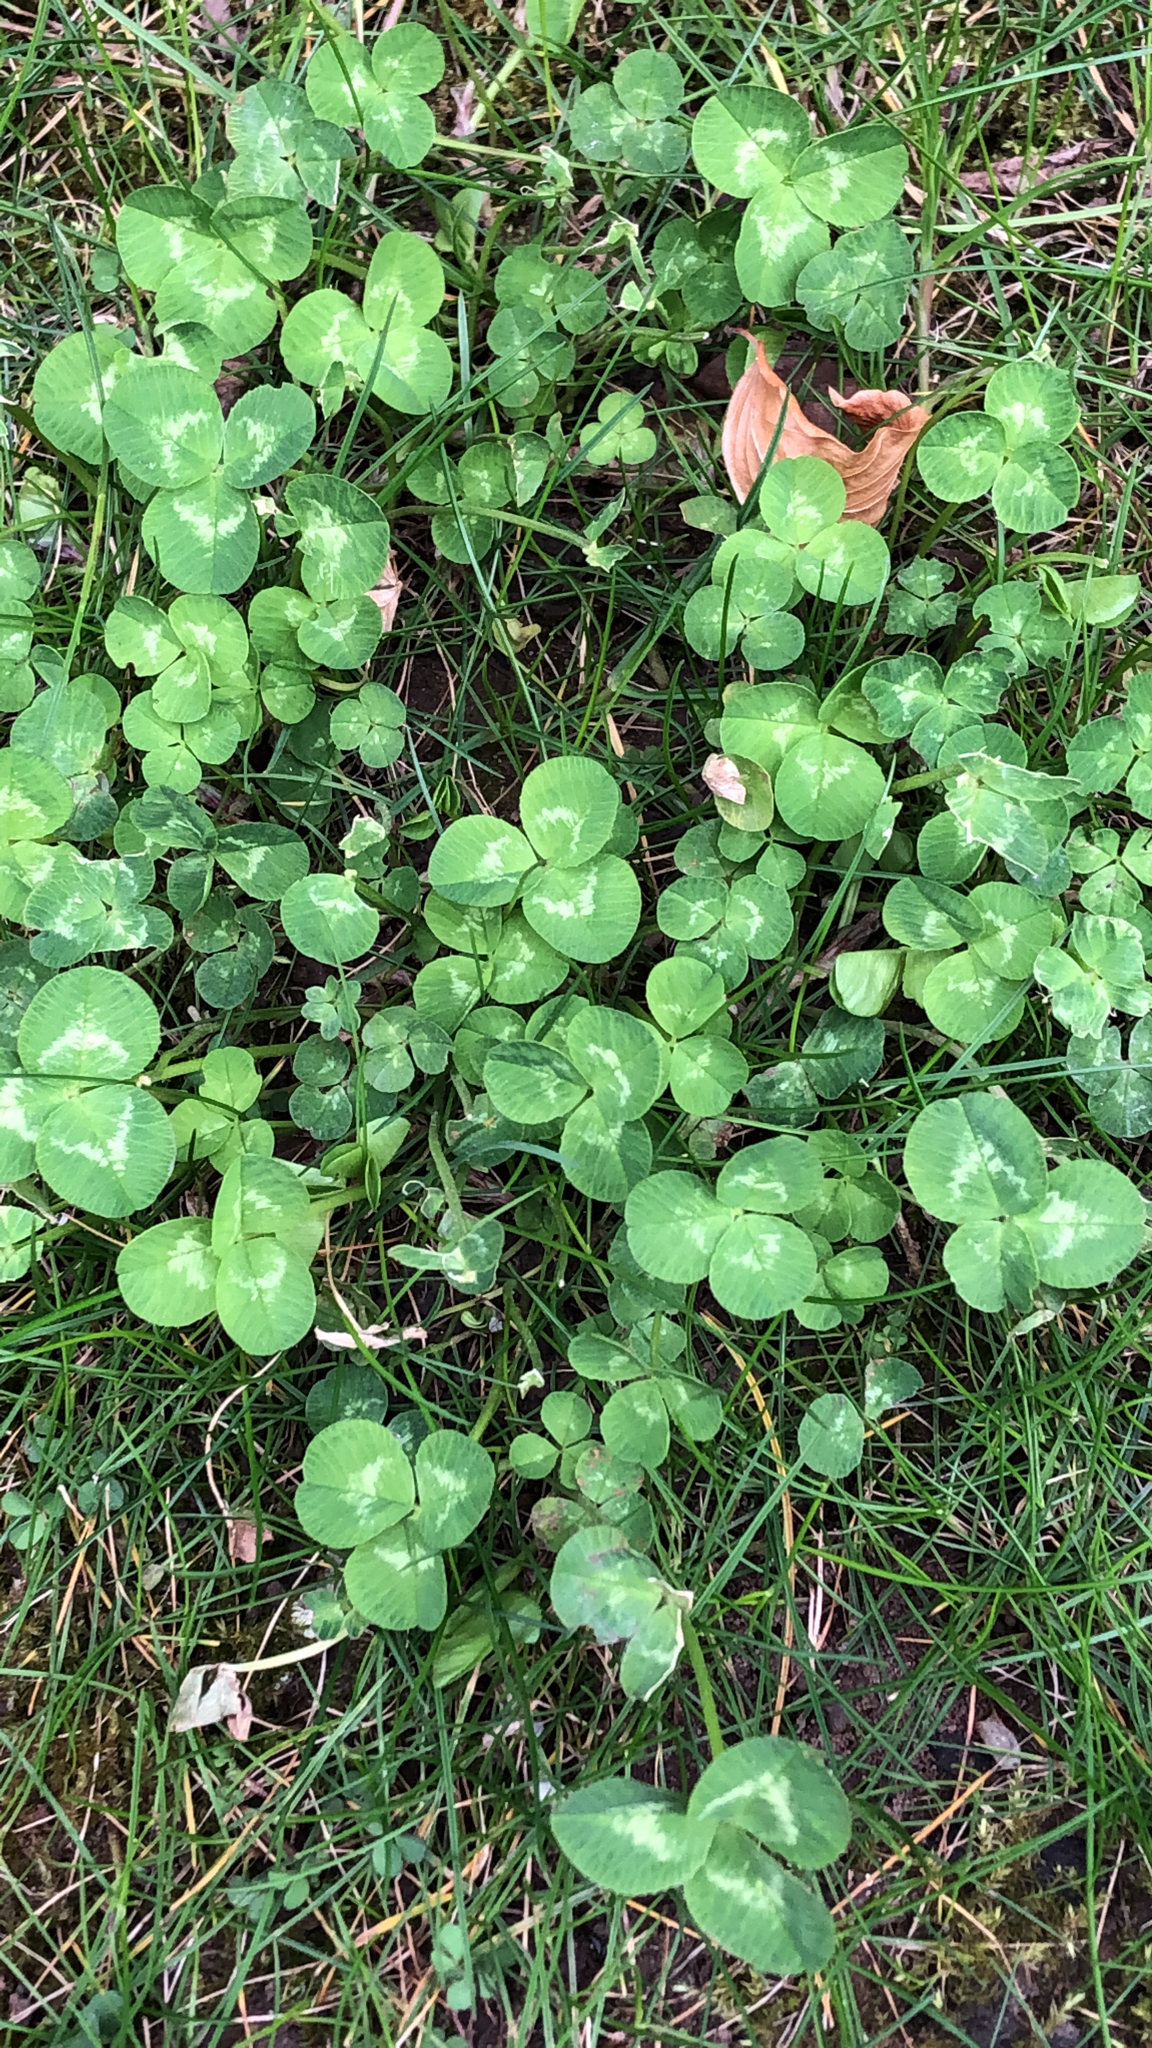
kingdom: Plantae
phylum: Tracheophyta
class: Magnoliopsida
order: Fabales
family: Fabaceae
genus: Trifolium
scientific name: Trifolium repens
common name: White clover
